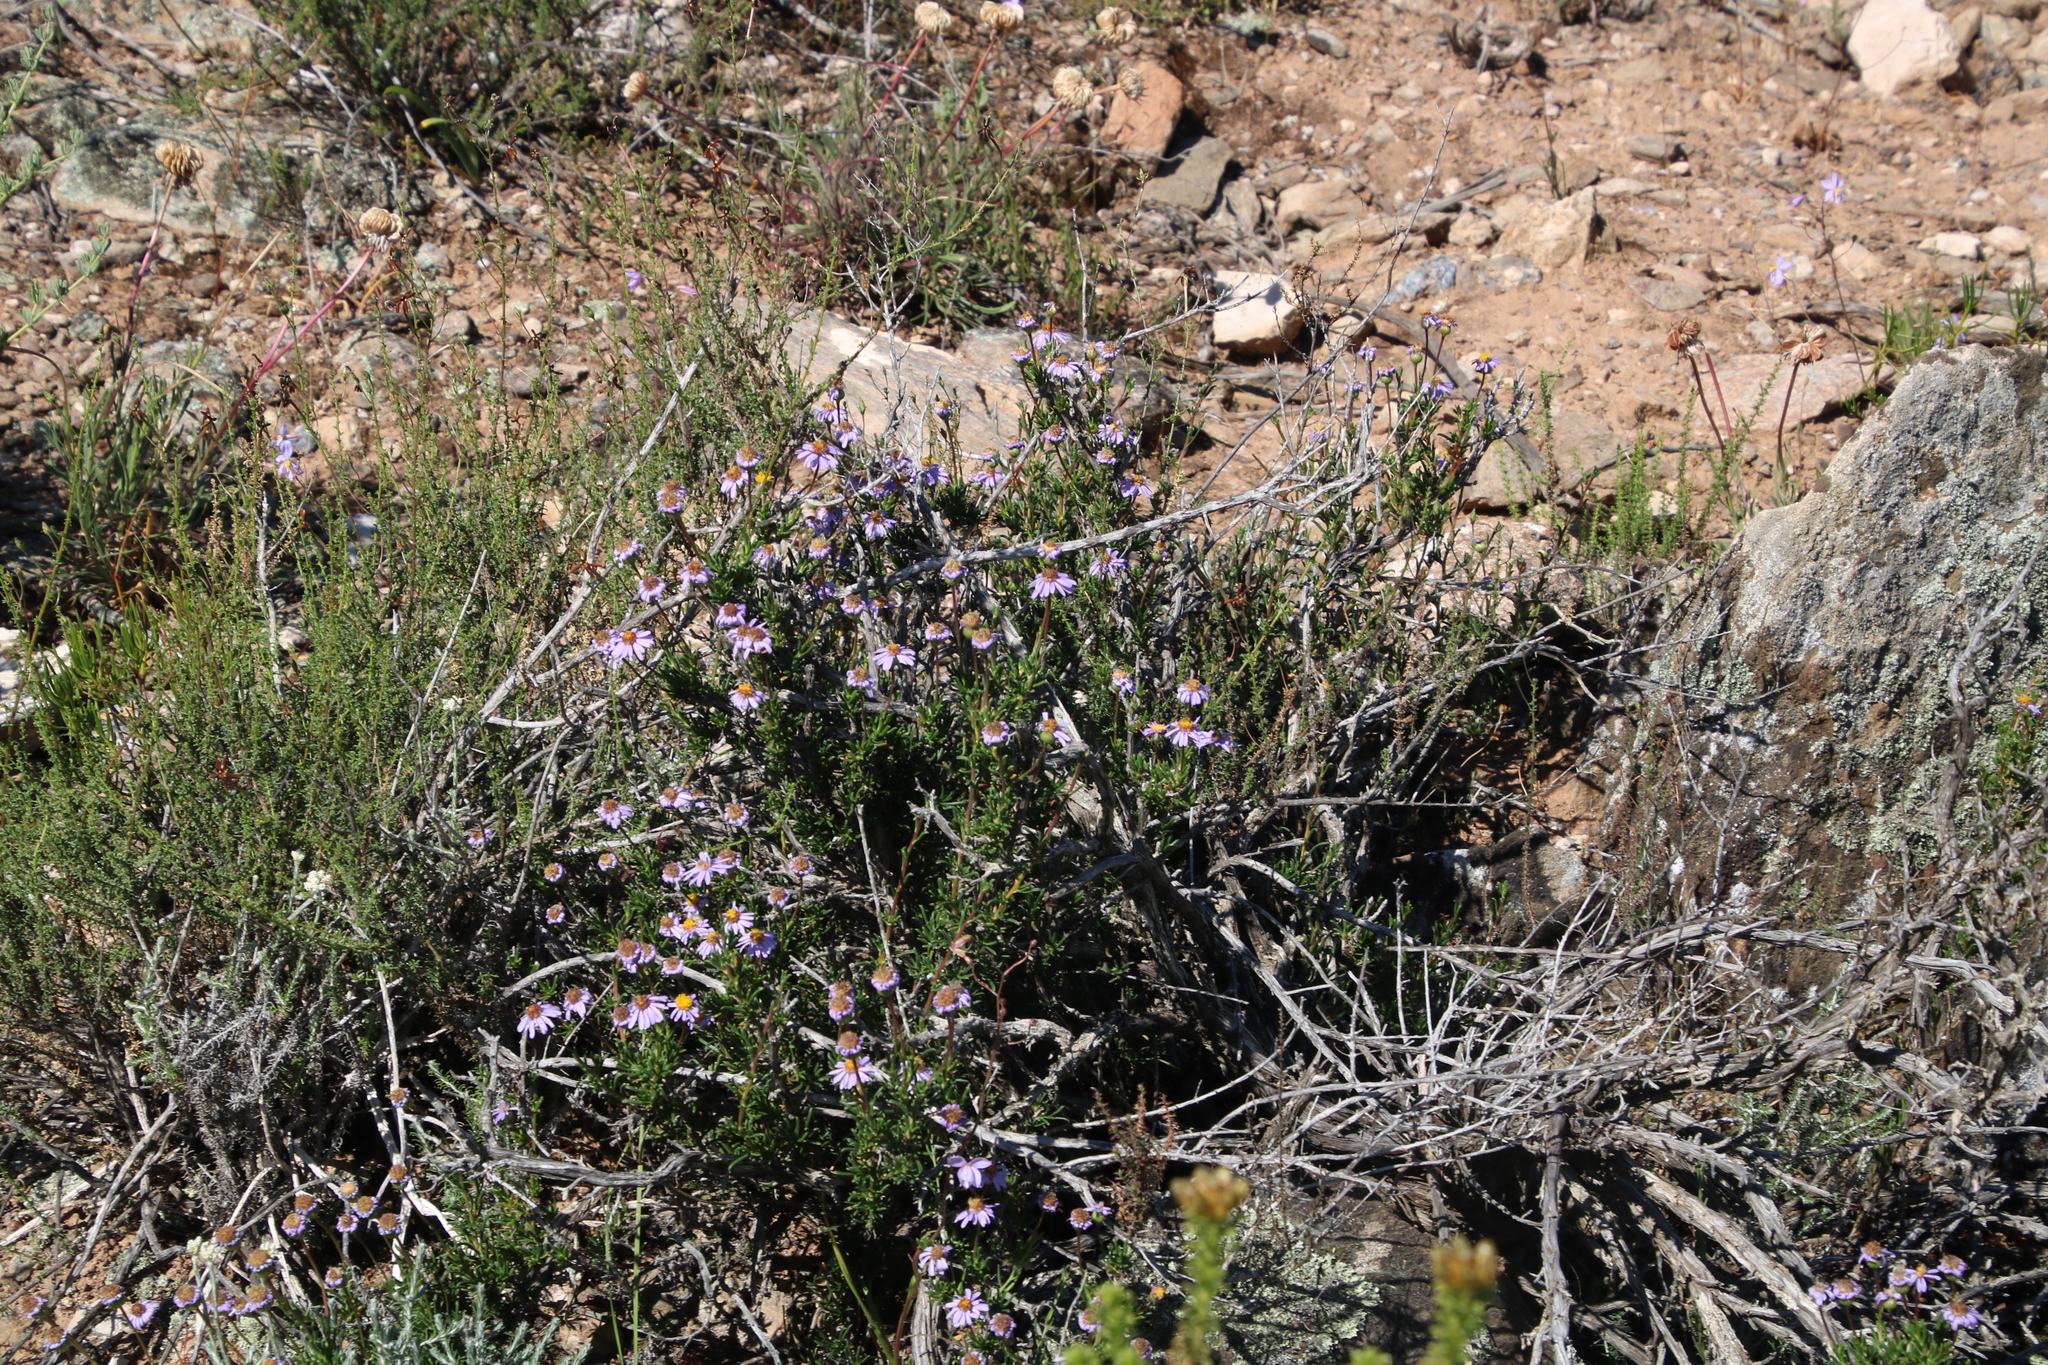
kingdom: Plantae
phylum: Tracheophyta
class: Magnoliopsida
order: Asterales
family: Asteraceae
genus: Felicia
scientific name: Felicia filifolia
